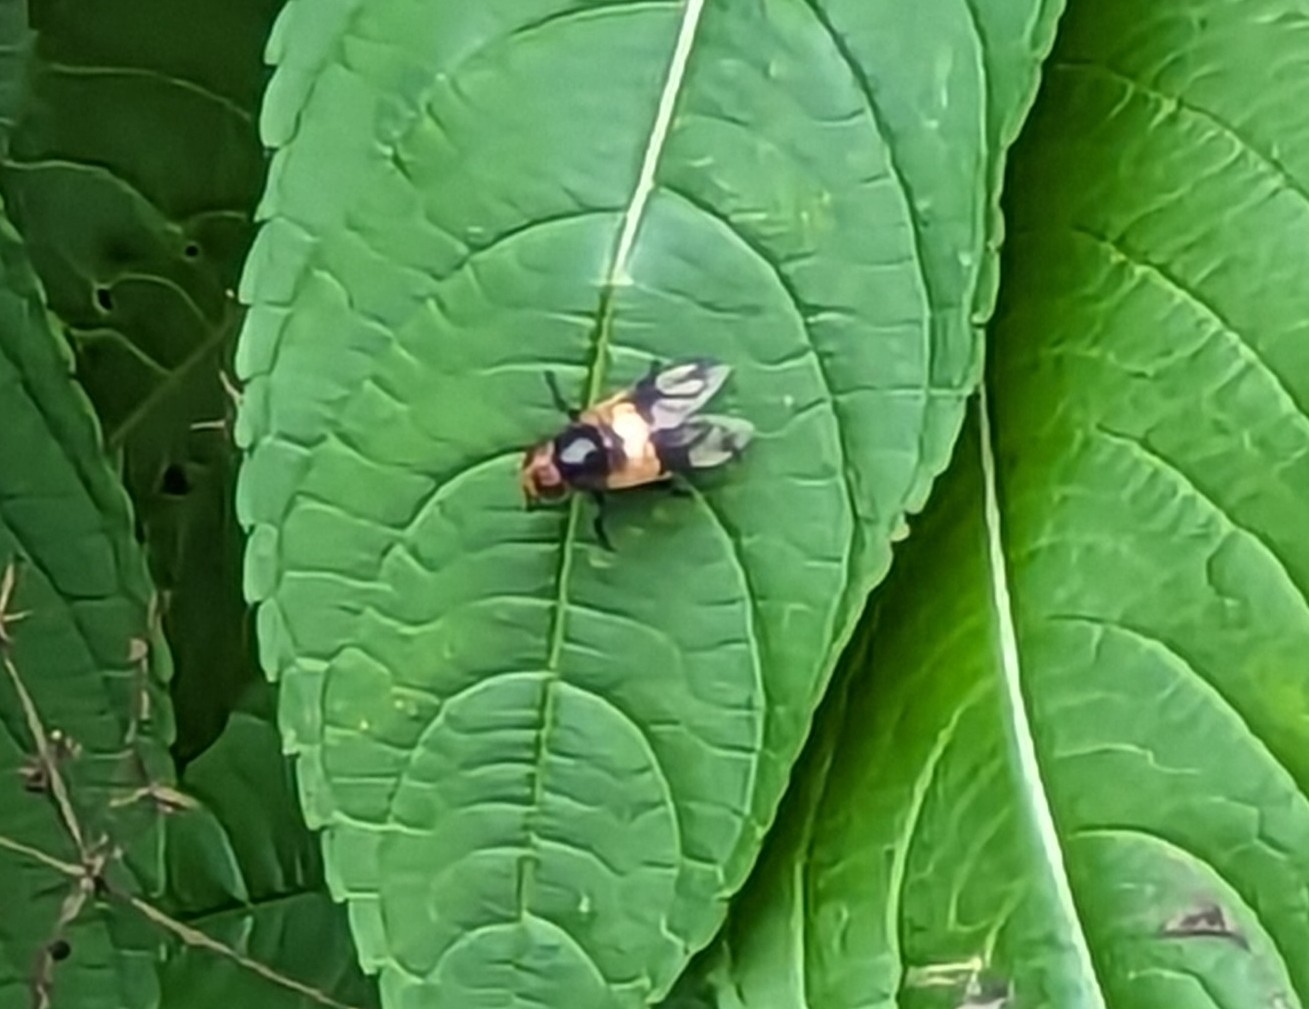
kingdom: Animalia
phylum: Arthropoda
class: Insecta
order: Diptera
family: Syrphidae
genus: Volucella
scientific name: Volucella pellucens
